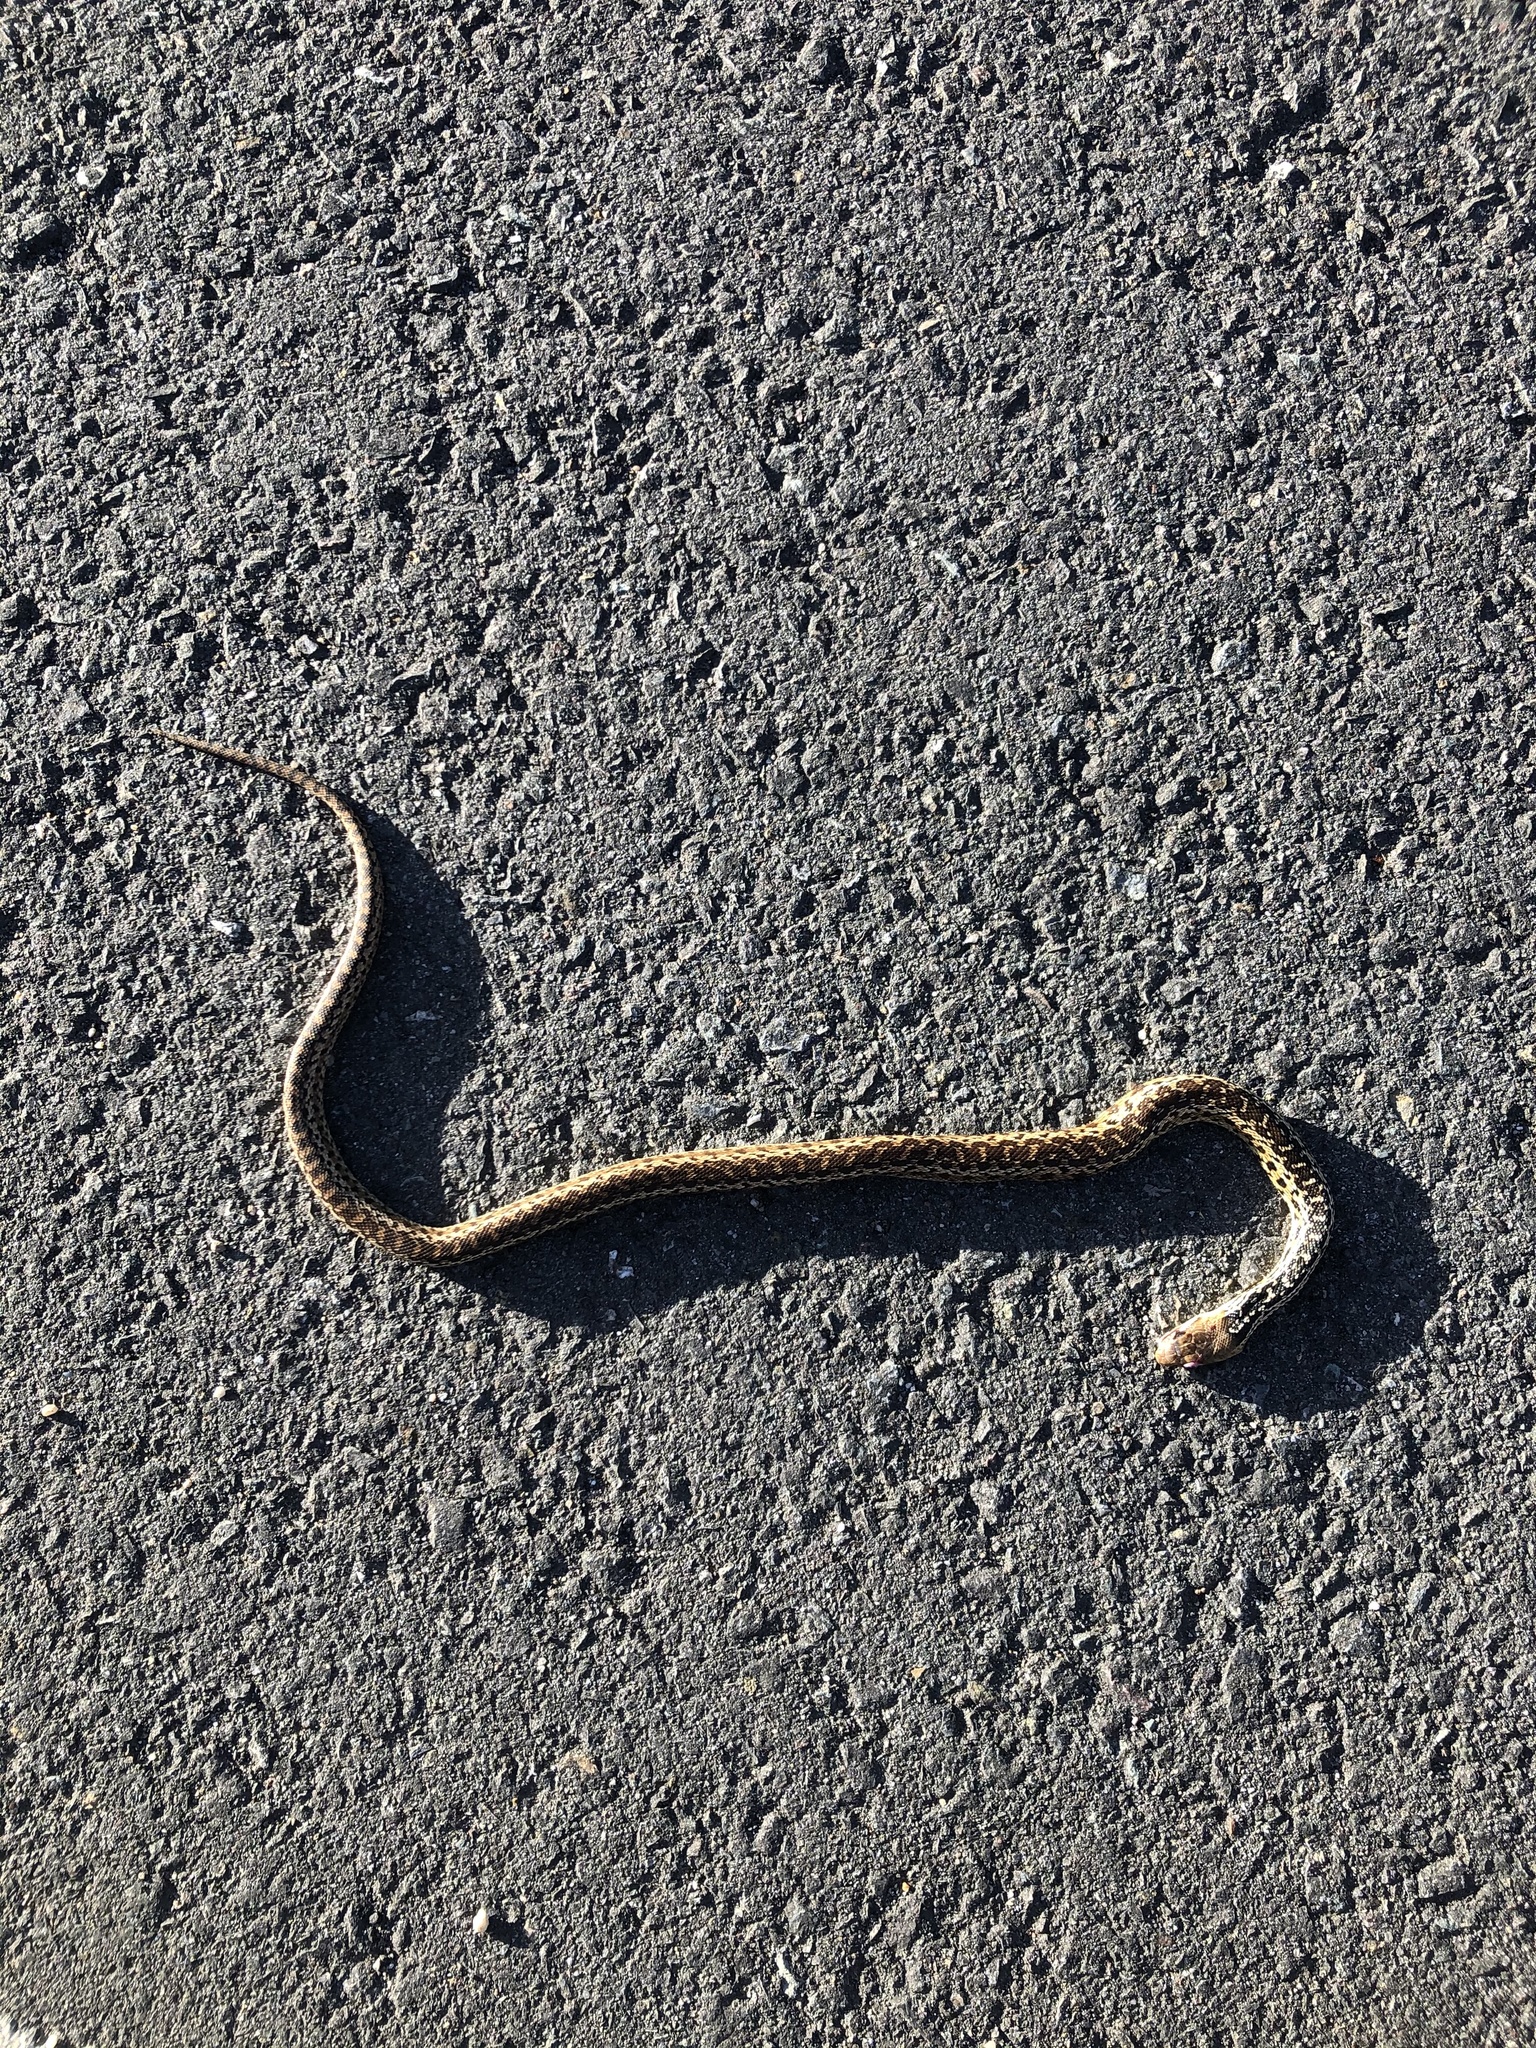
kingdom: Animalia
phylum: Chordata
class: Squamata
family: Colubridae
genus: Pituophis
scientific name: Pituophis catenifer
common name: Gopher snake
